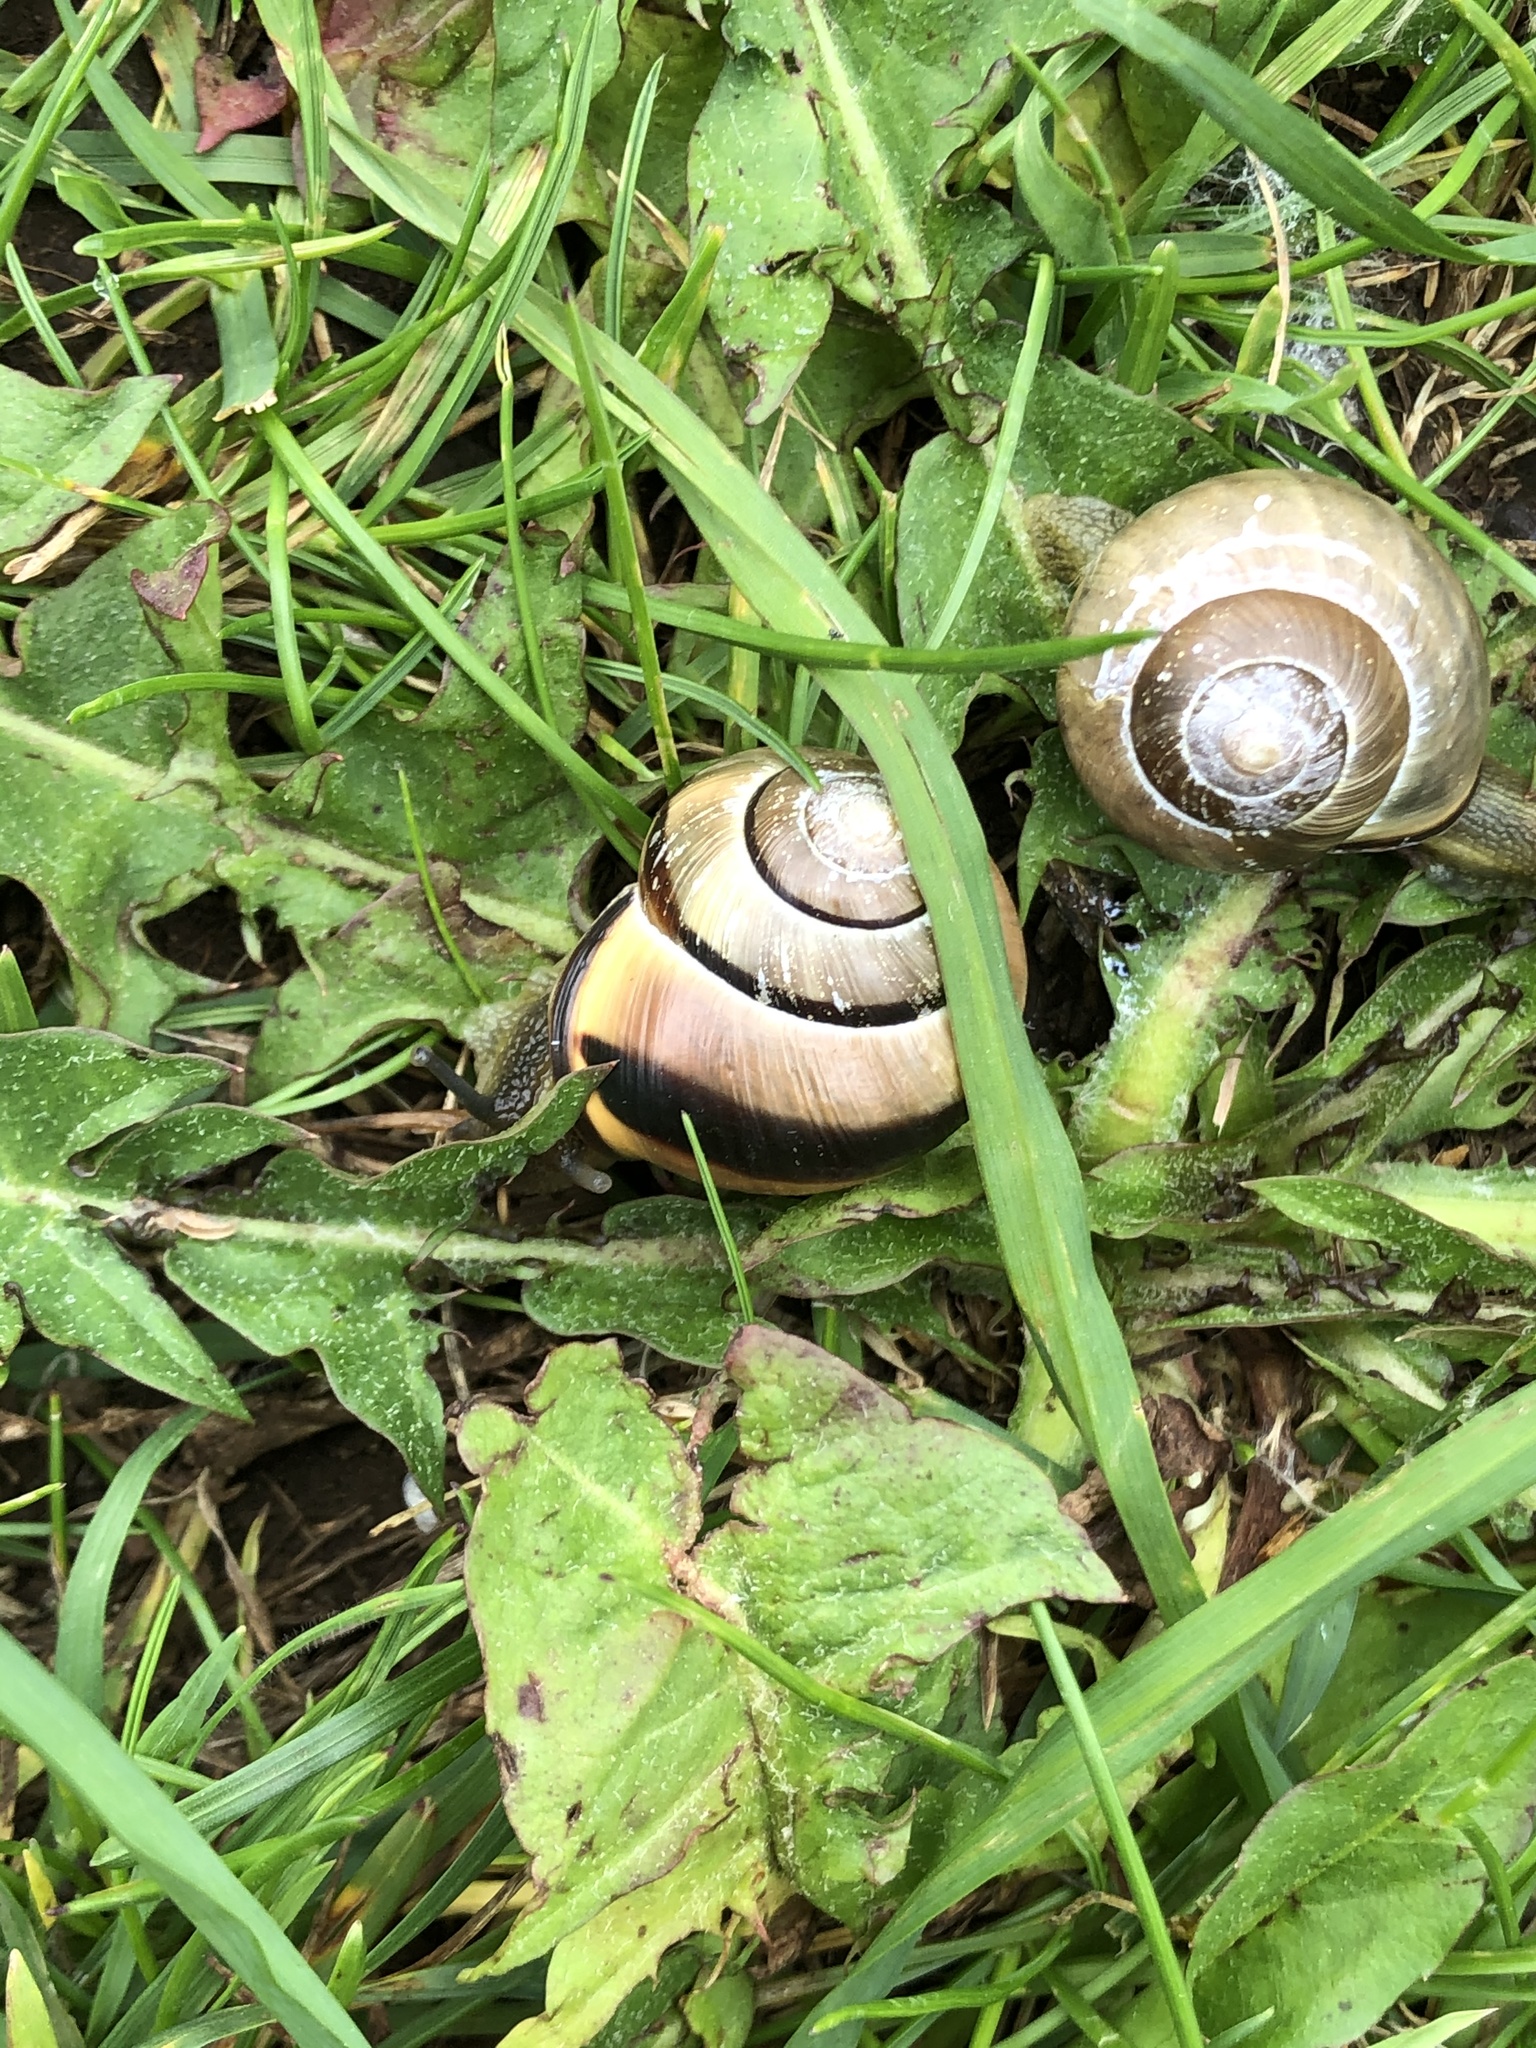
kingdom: Animalia
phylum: Mollusca
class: Gastropoda
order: Stylommatophora
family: Helicidae
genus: Cepaea
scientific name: Cepaea nemoralis
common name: Grovesnail
